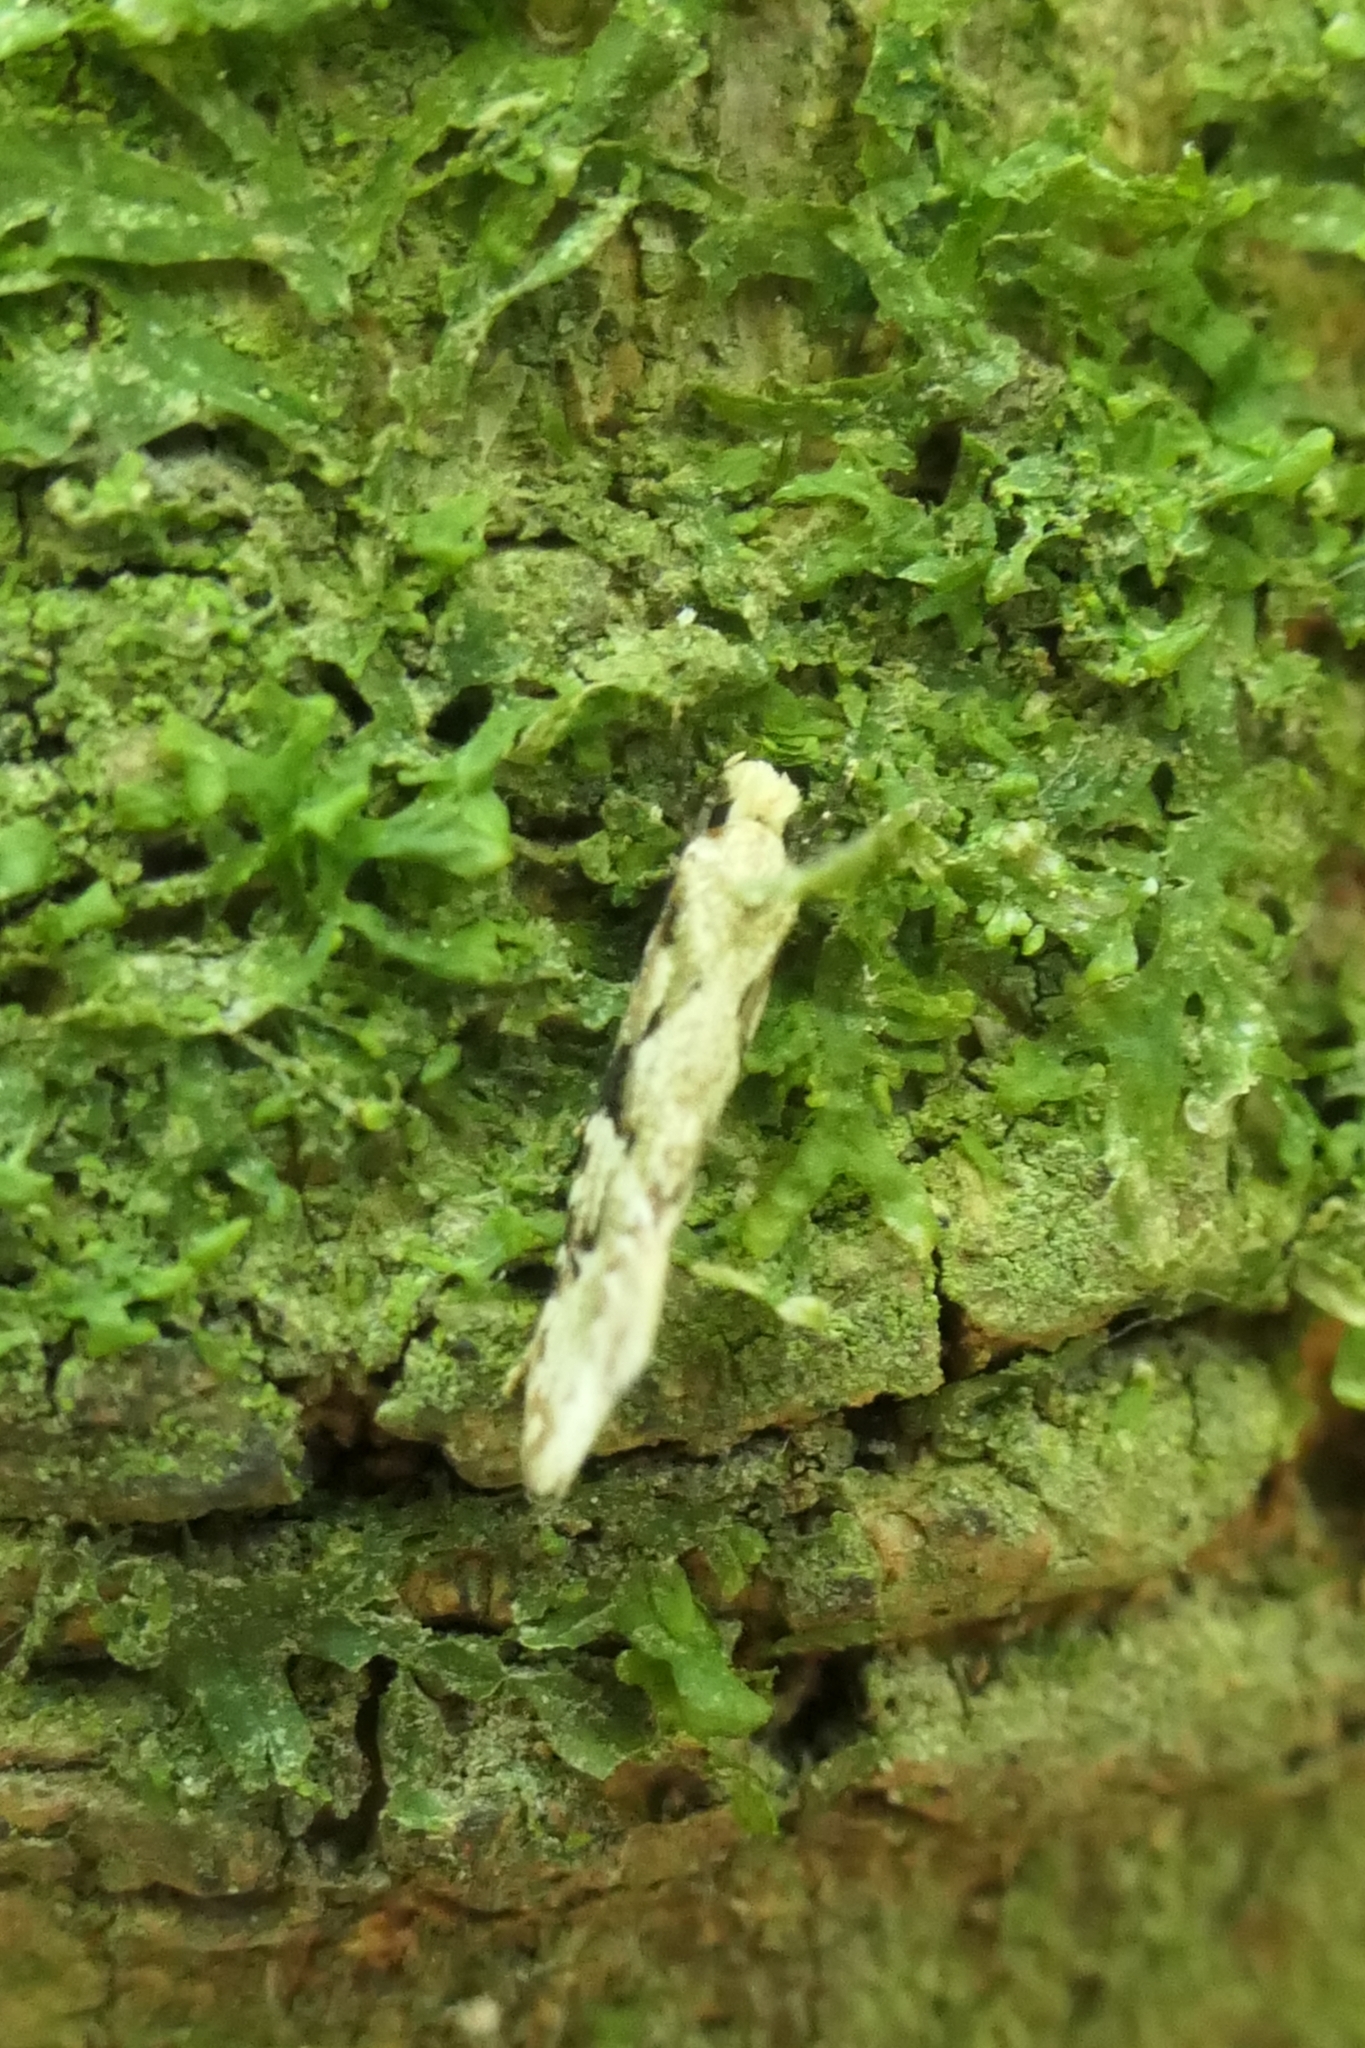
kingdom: Animalia
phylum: Arthropoda
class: Insecta
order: Lepidoptera
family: Tineidae
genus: Crypsitricha
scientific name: Crypsitricha mesotypa
